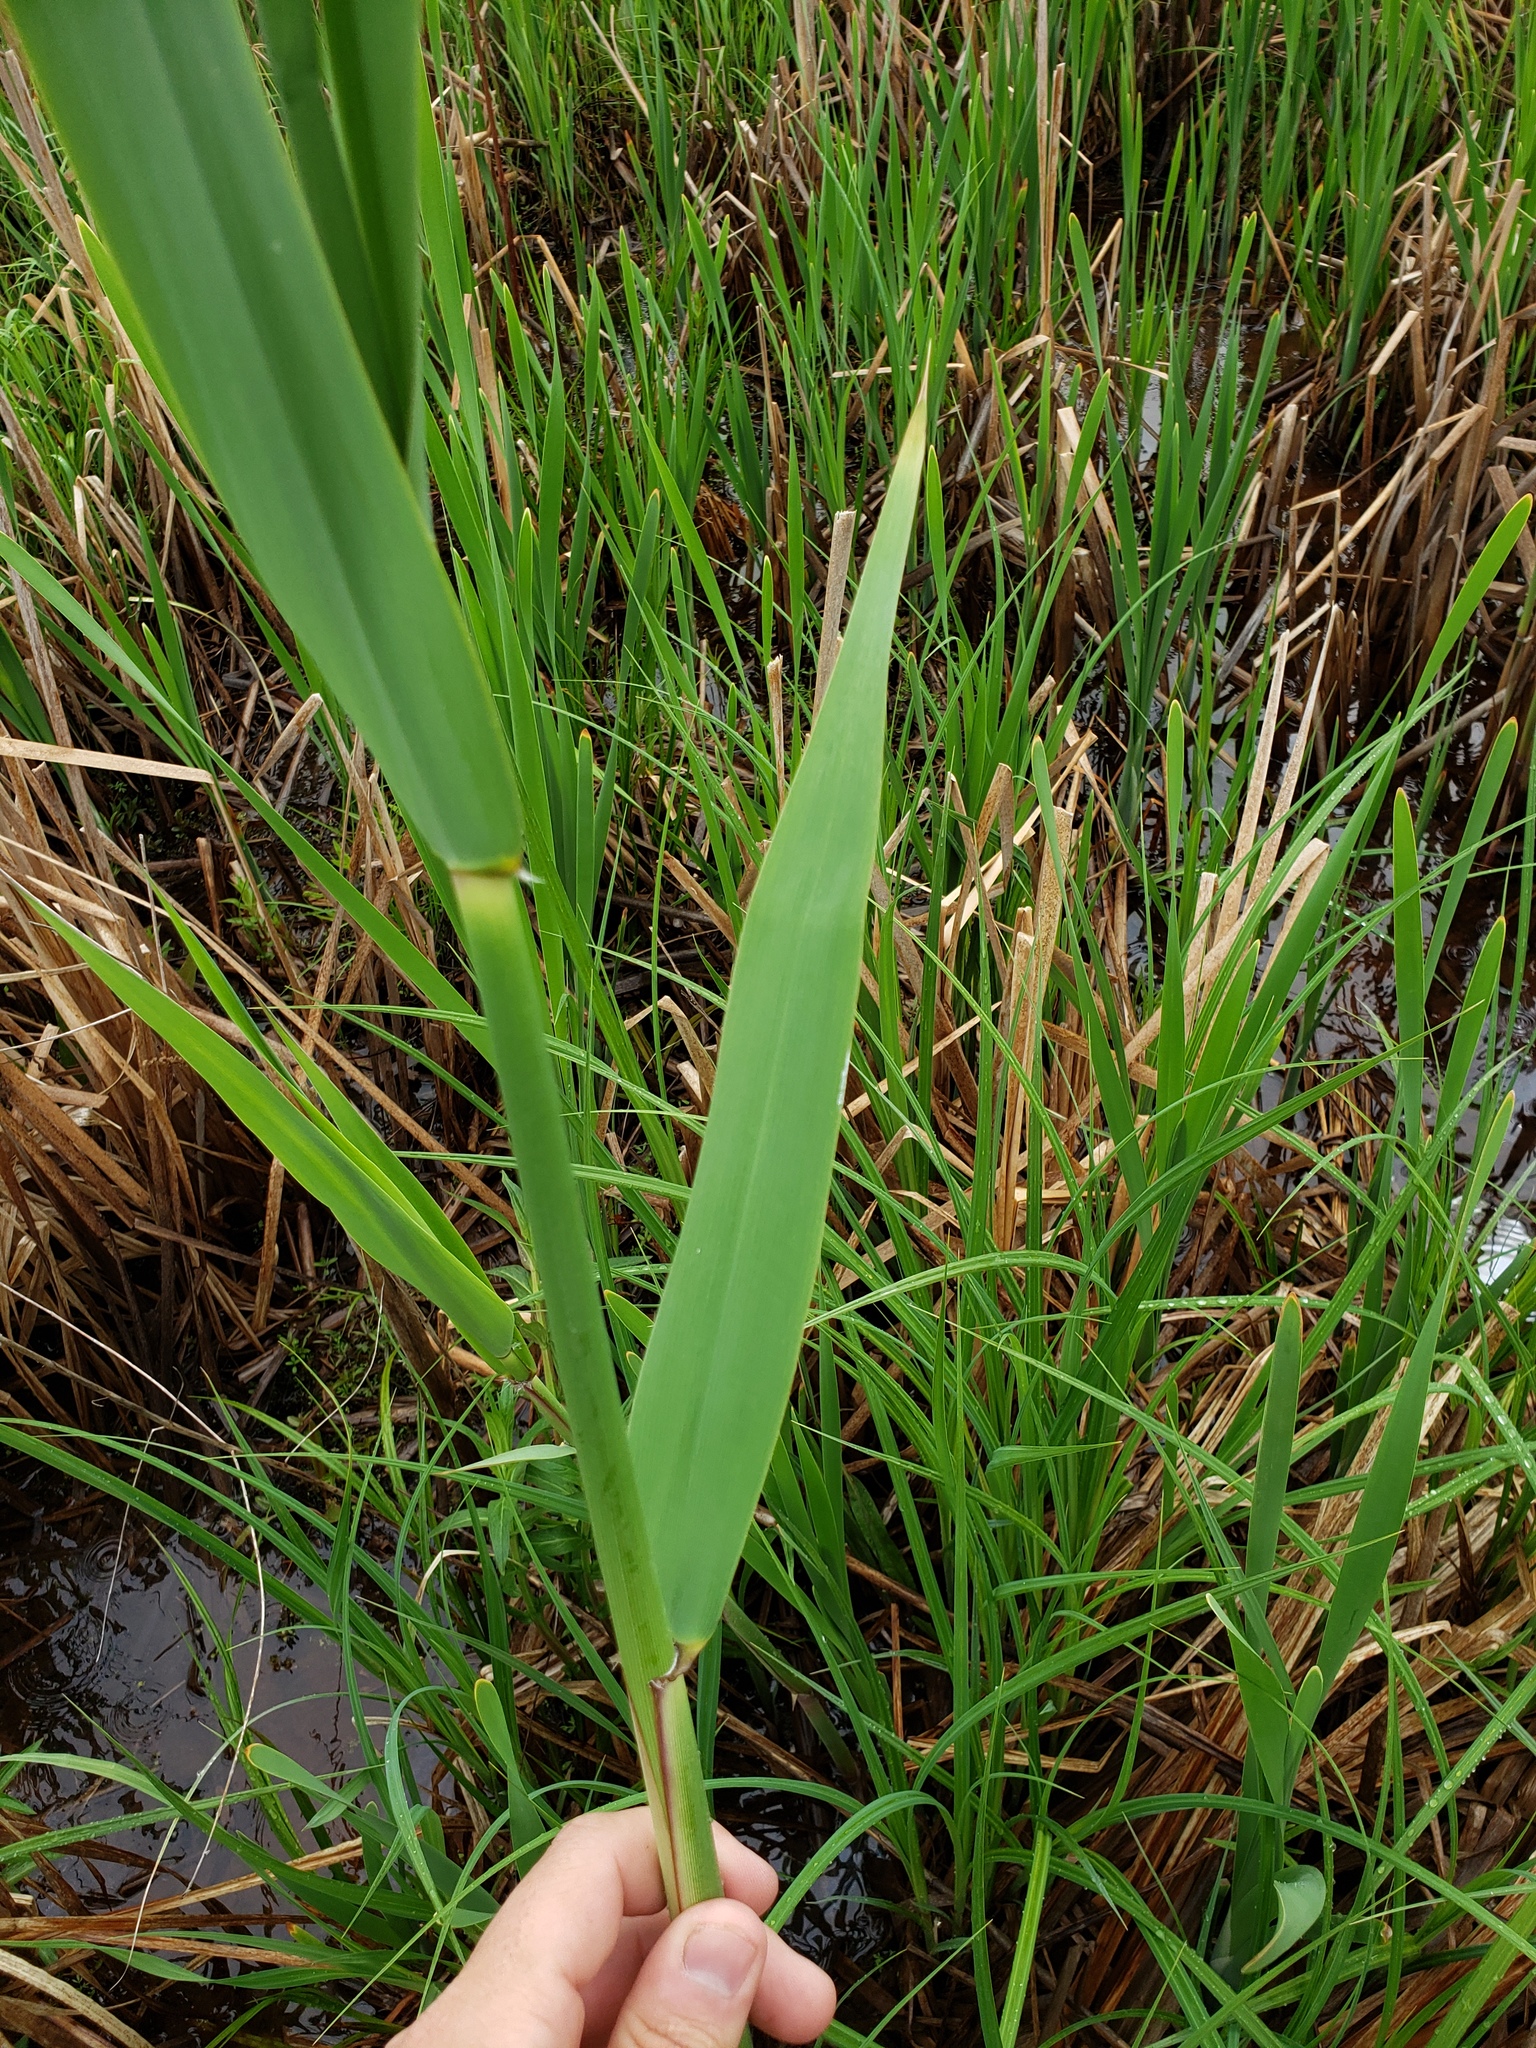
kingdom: Plantae
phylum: Tracheophyta
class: Liliopsida
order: Poales
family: Poaceae
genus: Phragmites
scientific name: Phragmites australis
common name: Common reed
